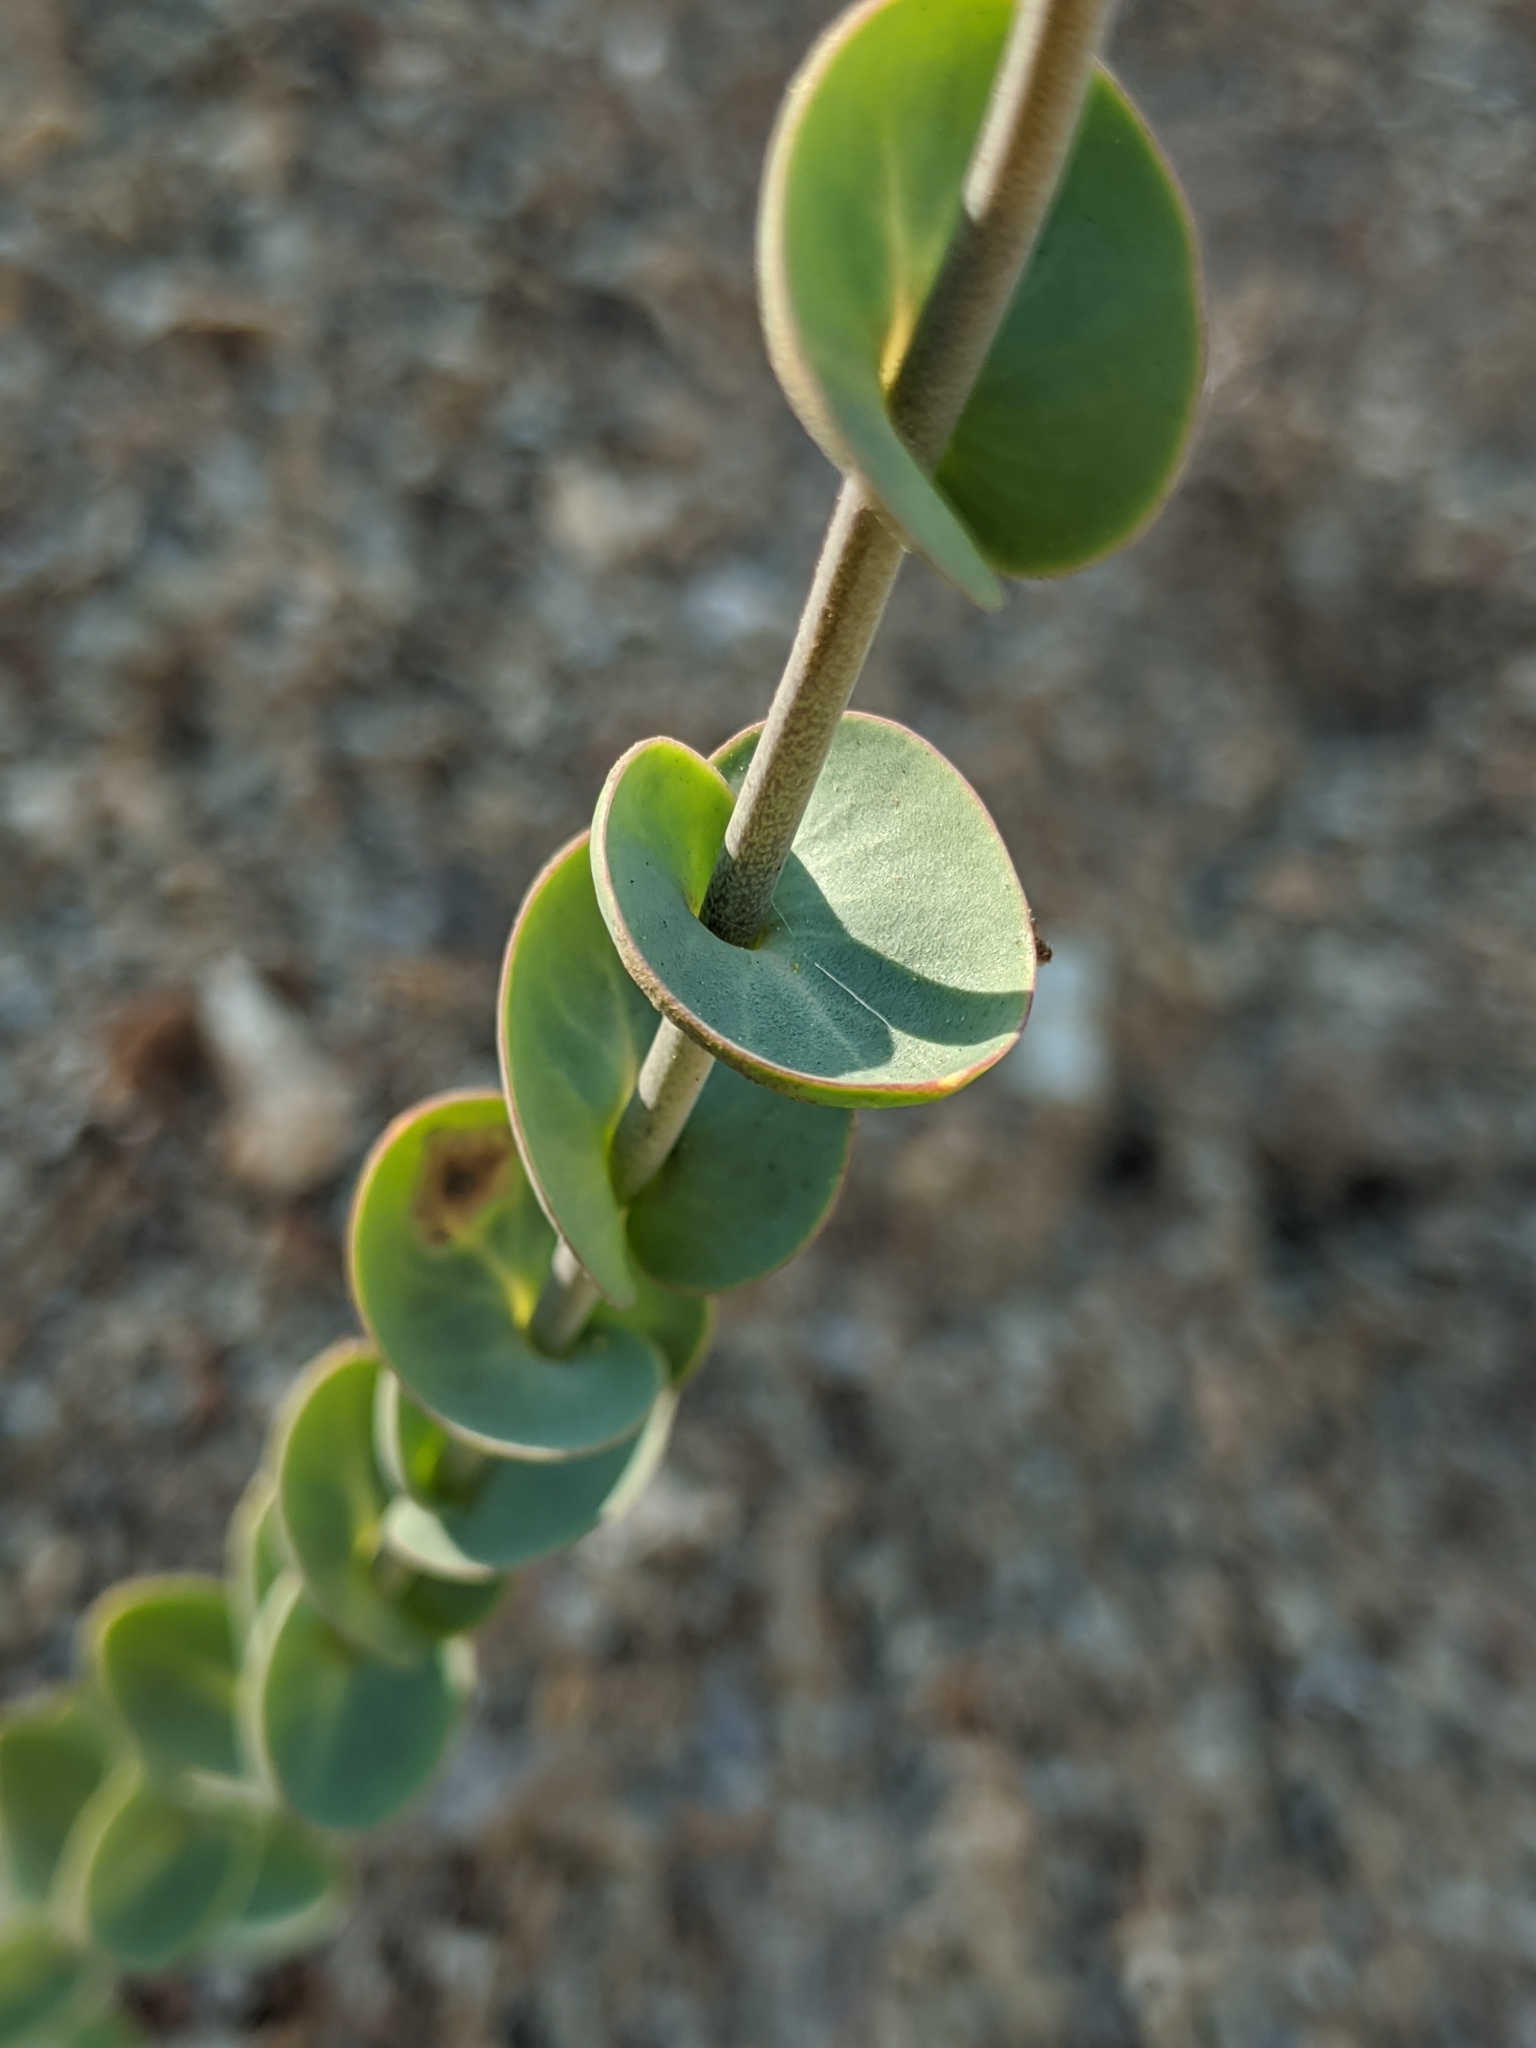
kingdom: Plantae
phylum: Tracheophyta
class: Magnoliopsida
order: Brassicales
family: Brassicaceae
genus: Streptanthus
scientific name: Streptanthus barbatus
